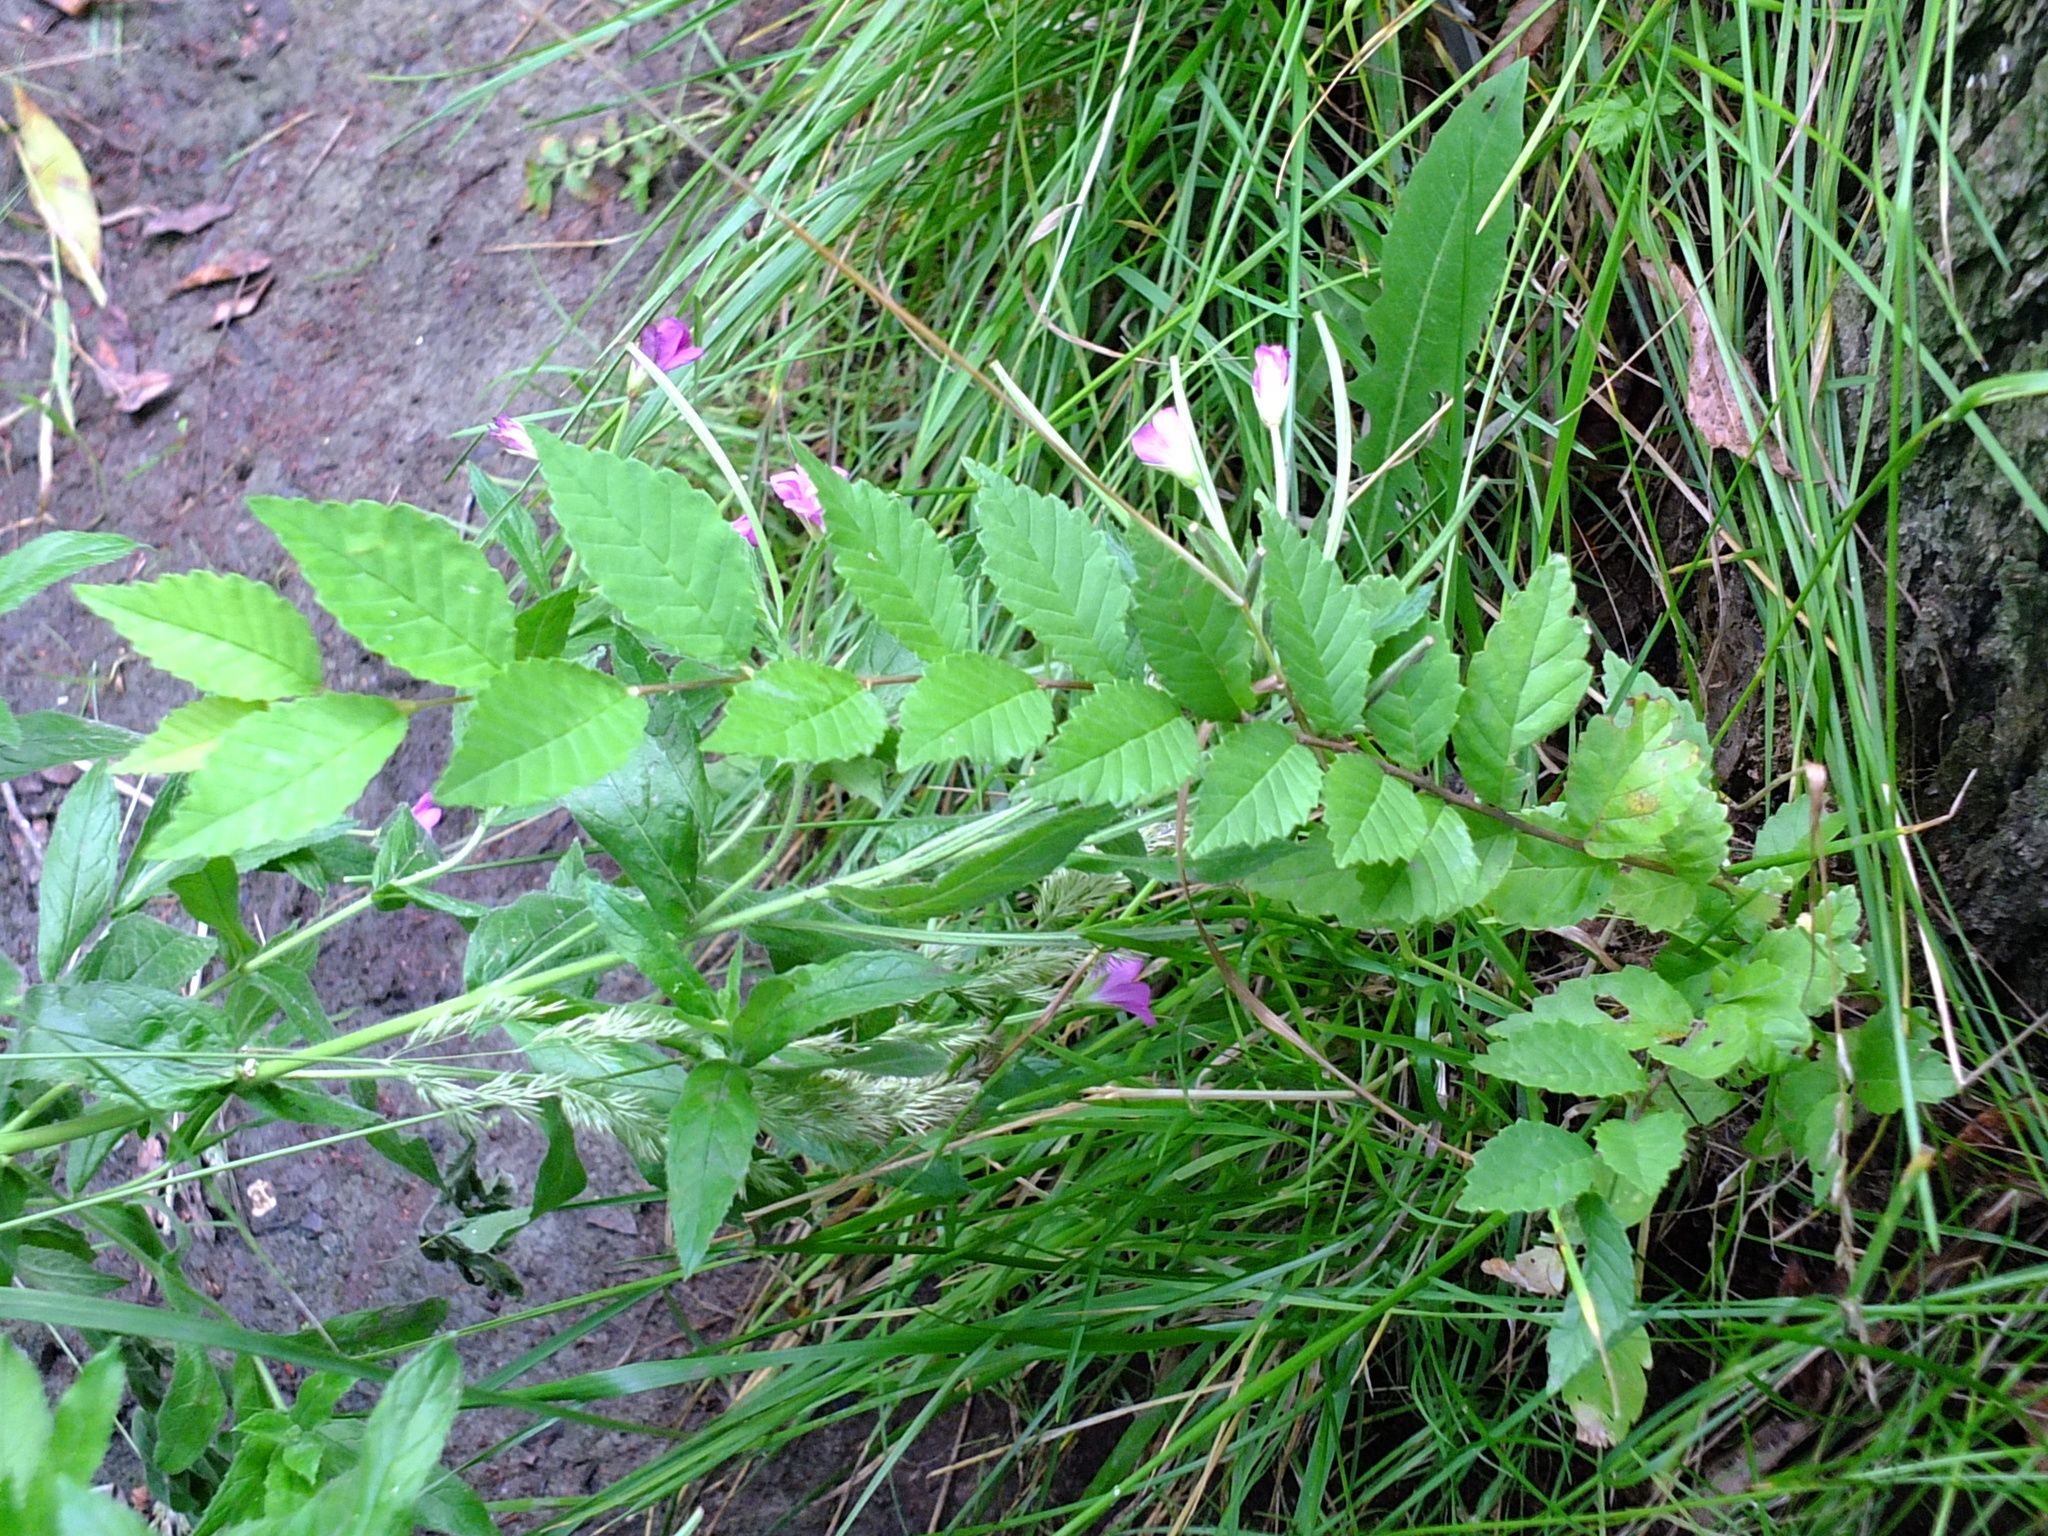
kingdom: Plantae
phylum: Tracheophyta
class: Magnoliopsida
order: Rosales
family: Ulmaceae
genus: Ulmus
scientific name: Ulmus pumila
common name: Siberian elm
